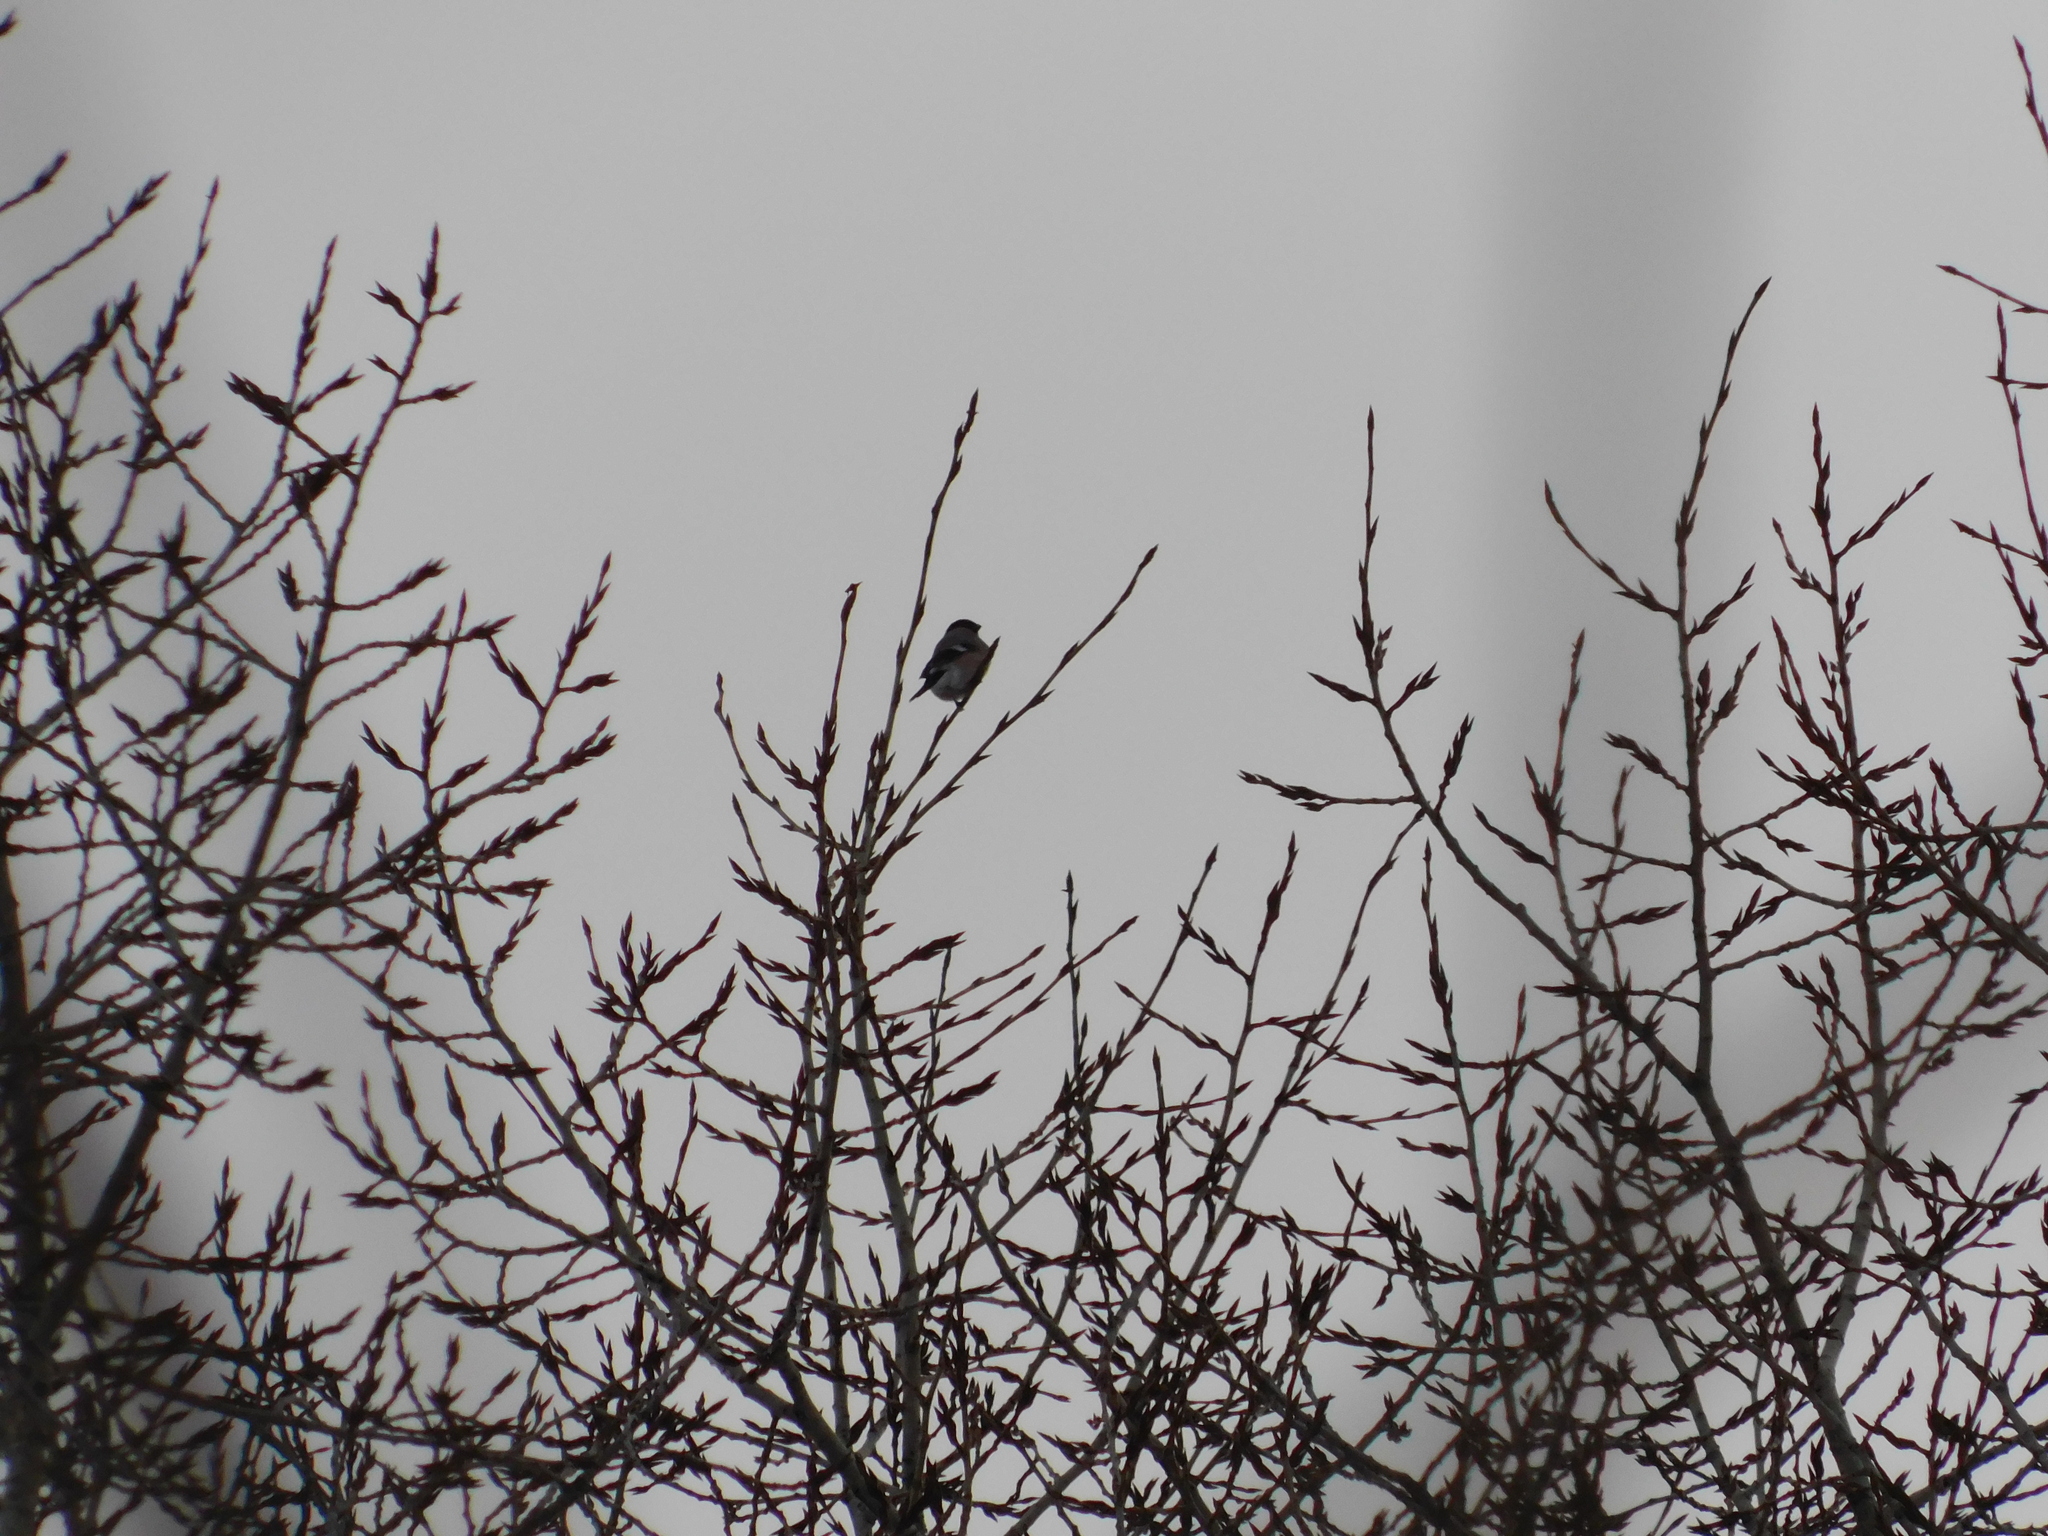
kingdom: Animalia
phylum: Chordata
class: Aves
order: Passeriformes
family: Fringillidae
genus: Pyrrhula
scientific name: Pyrrhula pyrrhula
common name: Eurasian bullfinch
